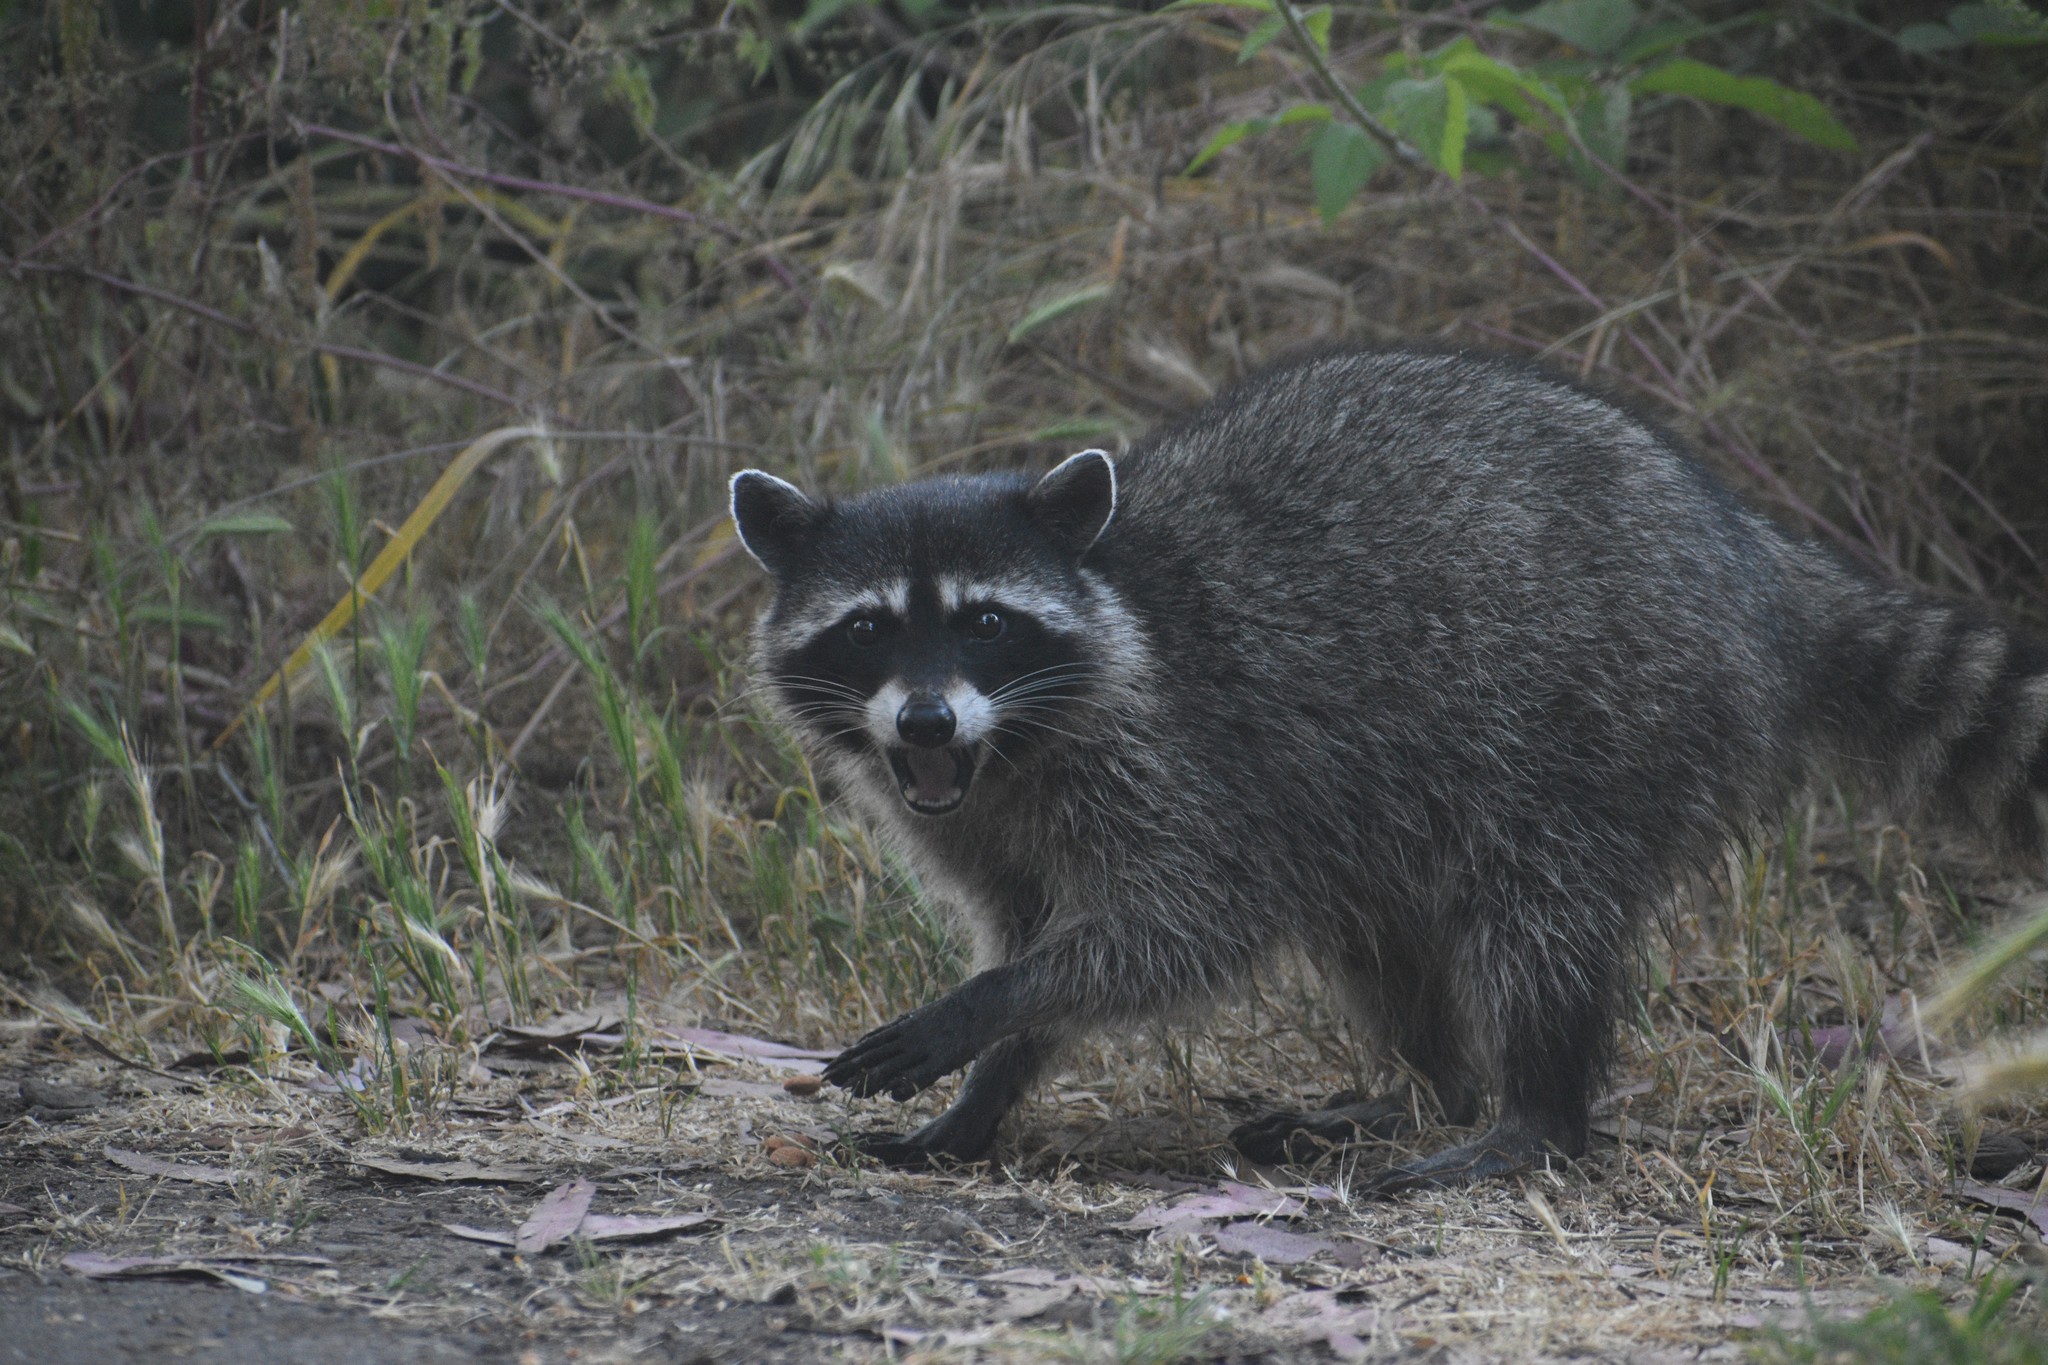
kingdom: Animalia
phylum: Chordata
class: Mammalia
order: Carnivora
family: Procyonidae
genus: Procyon
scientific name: Procyon lotor
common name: Raccoon
